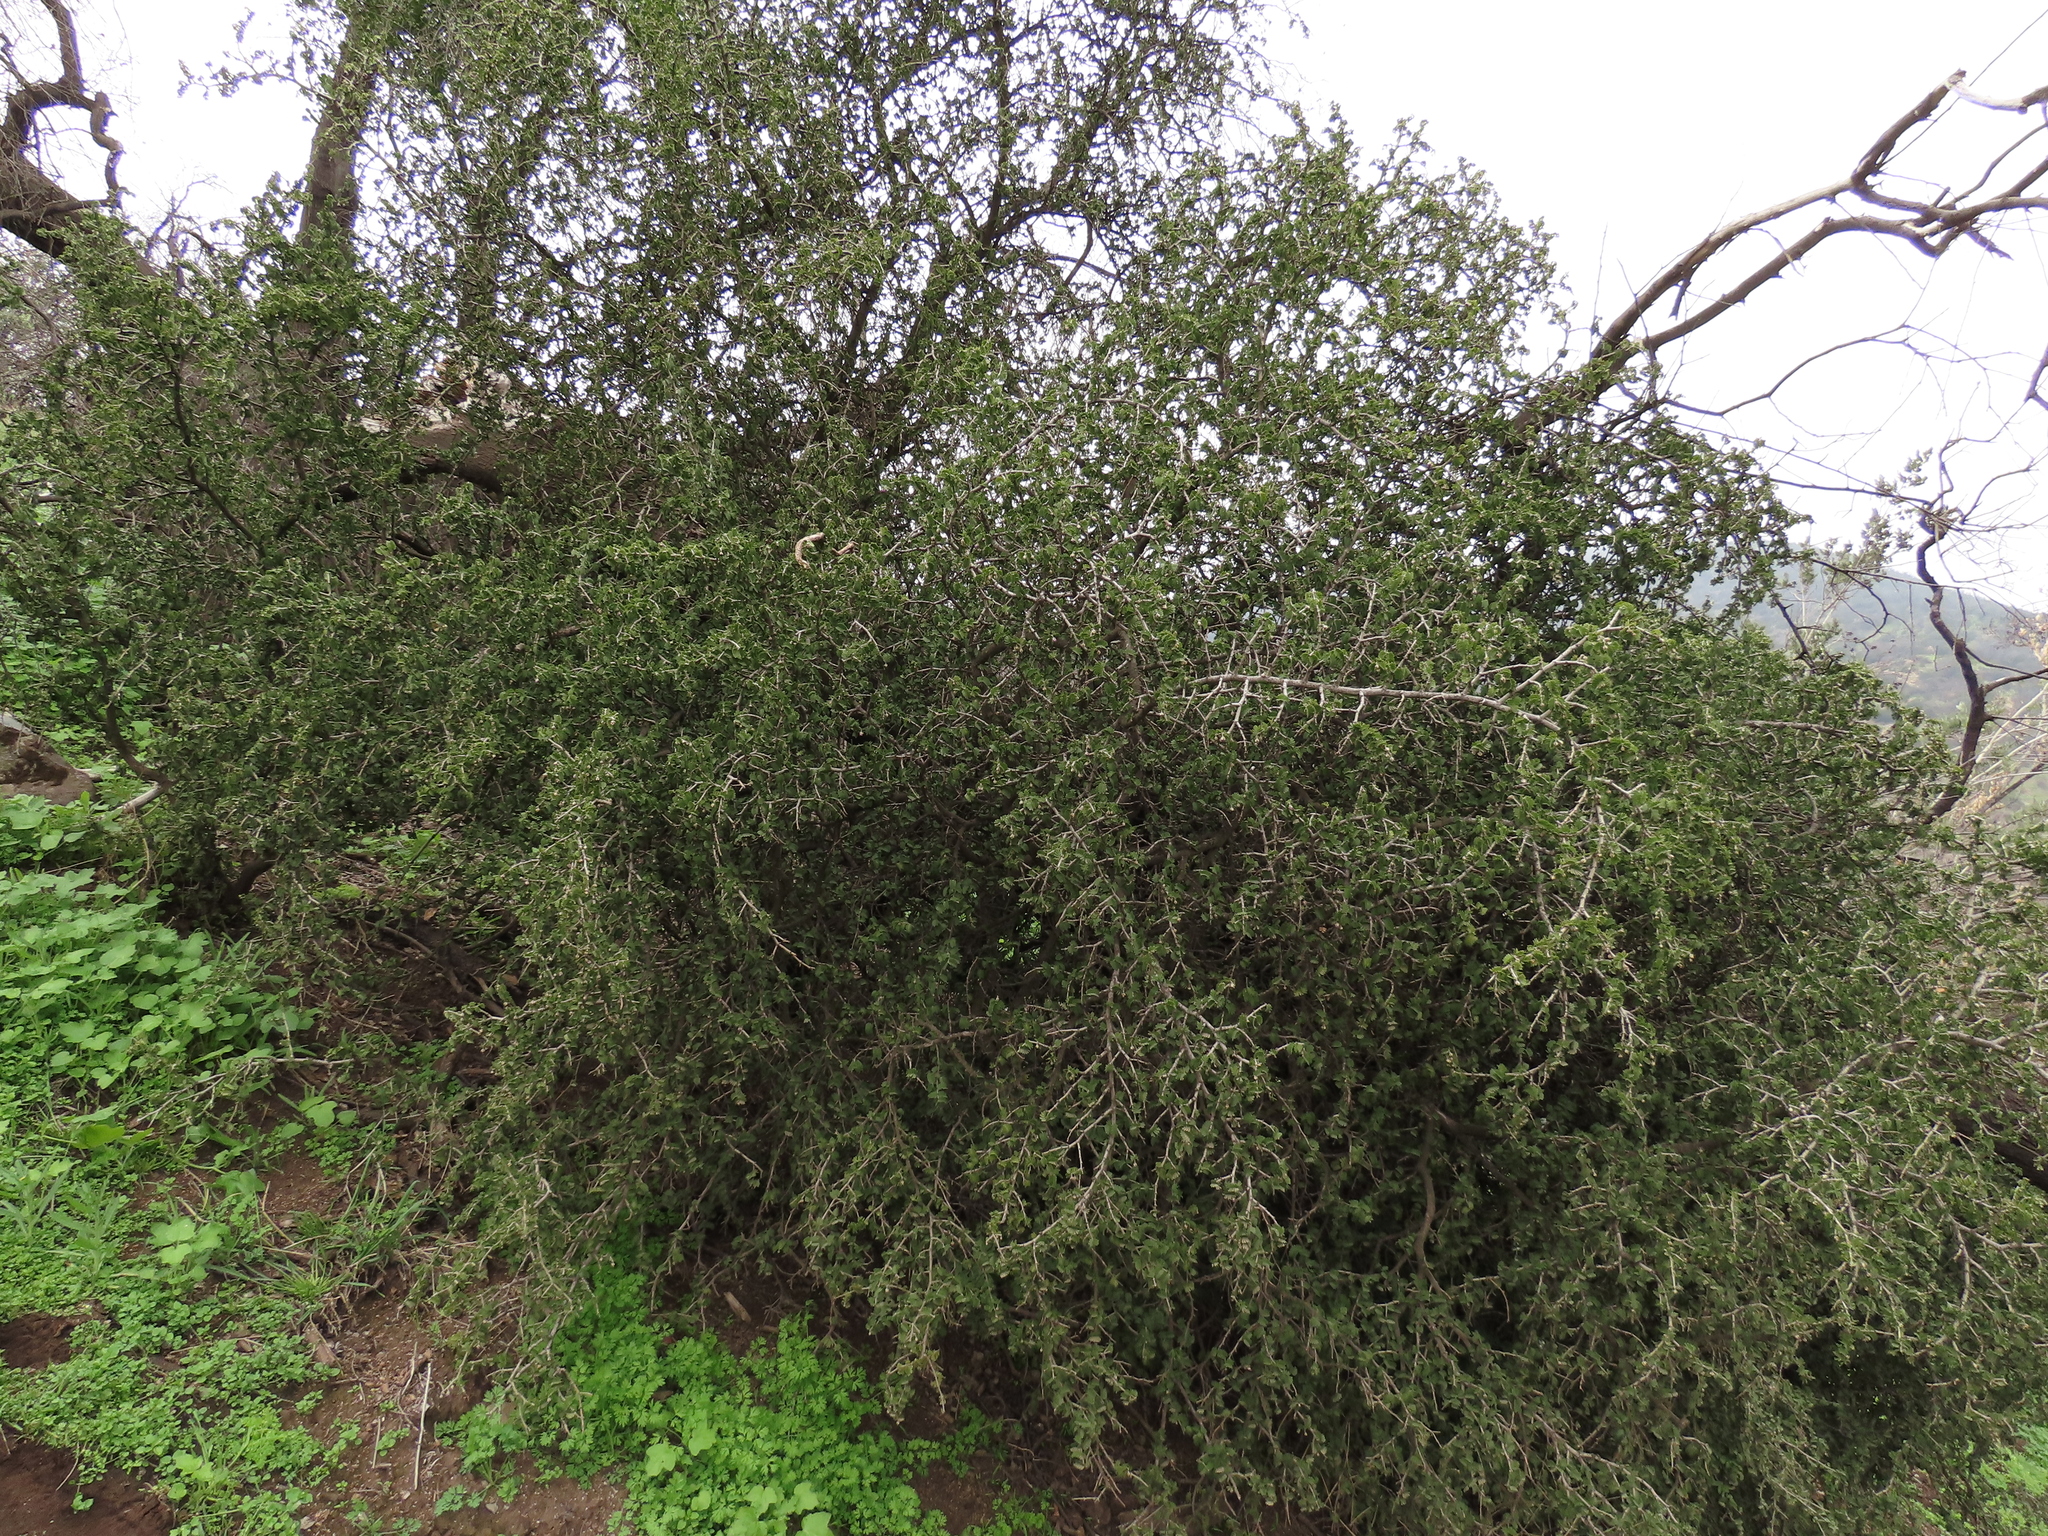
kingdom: Plantae
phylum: Tracheophyta
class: Magnoliopsida
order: Zygophyllales
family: Zygophyllaceae
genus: Porlieria
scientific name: Porlieria chilensis
